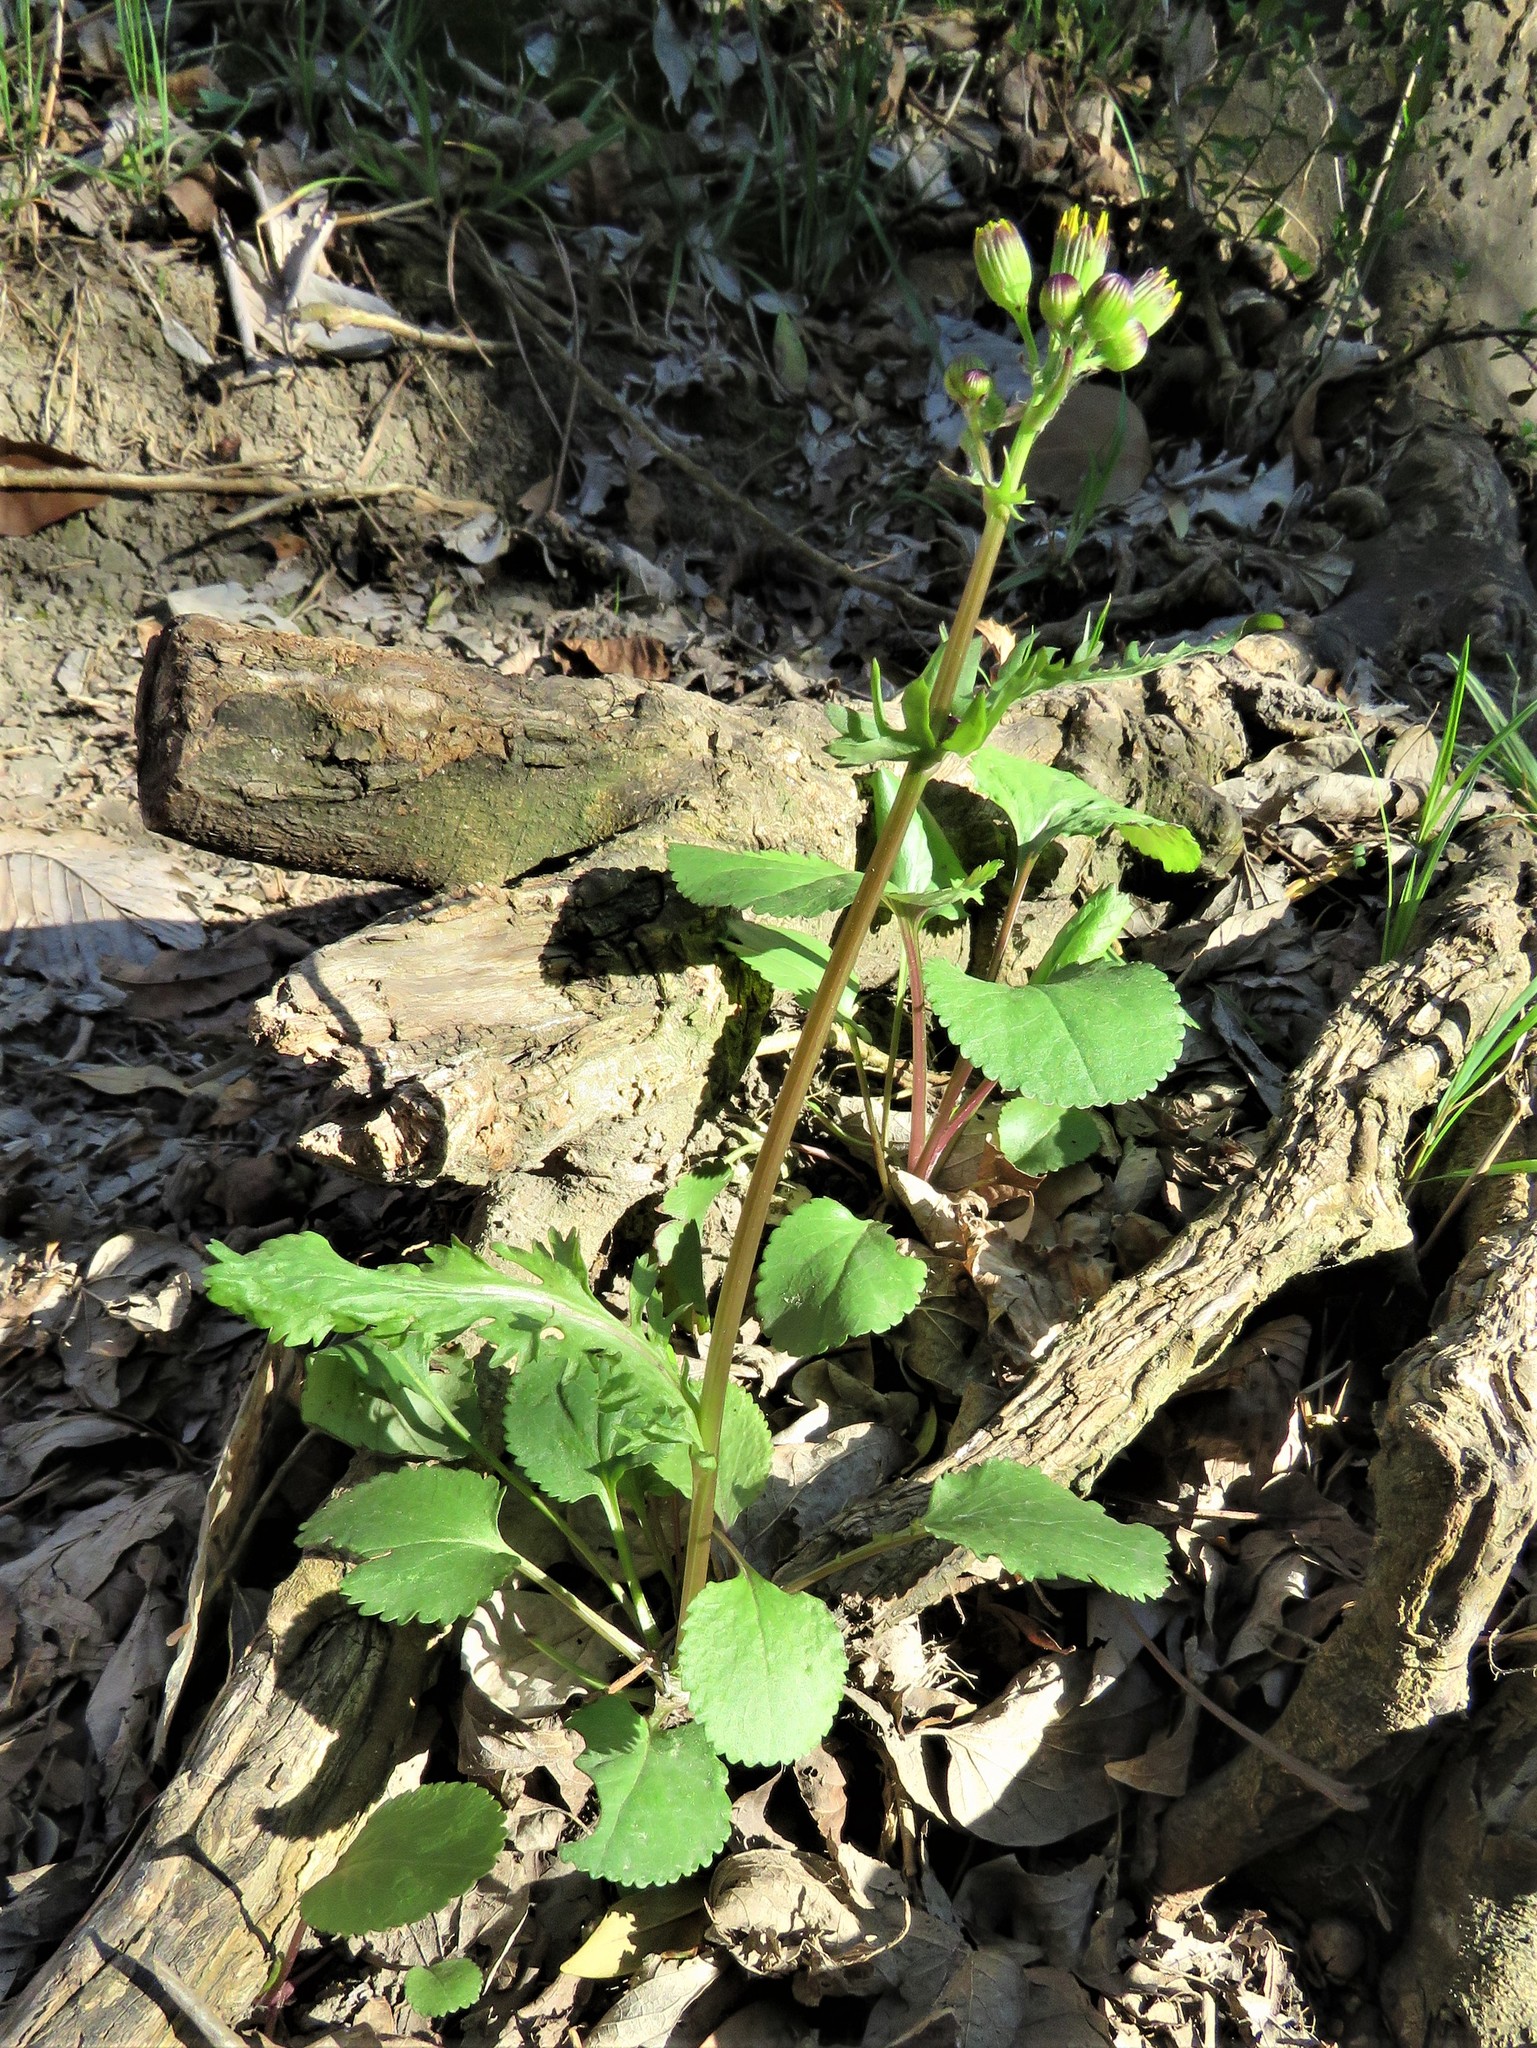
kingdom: Plantae
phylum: Tracheophyta
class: Magnoliopsida
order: Asterales
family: Asteraceae
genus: Packera
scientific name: Packera obovata
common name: Round-leaf ragwort
